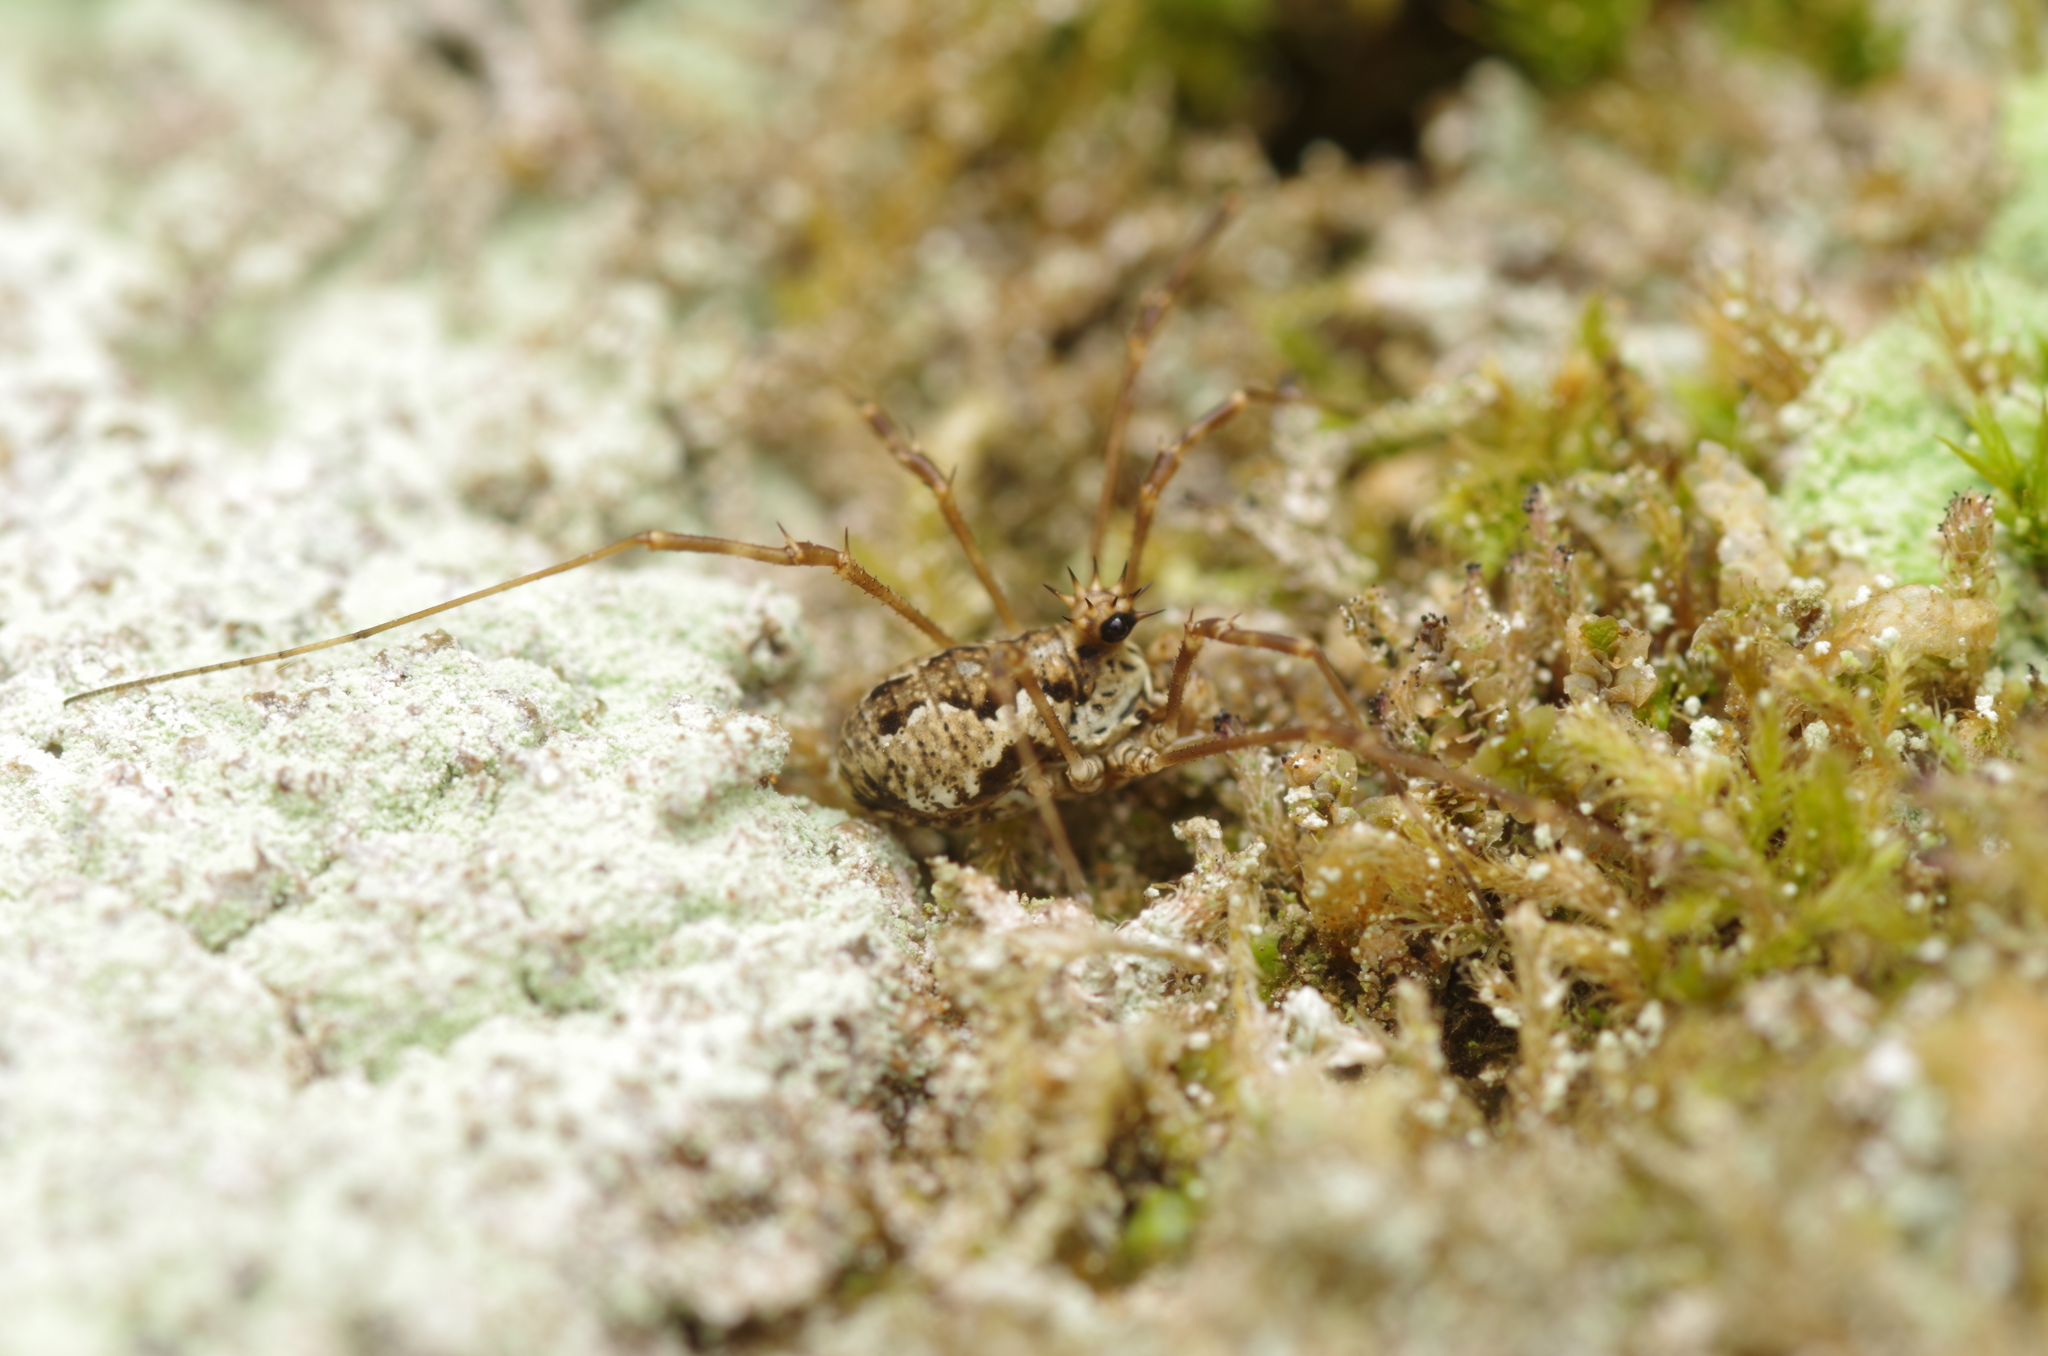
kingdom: Animalia
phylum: Arthropoda
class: Arachnida
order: Opiliones
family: Phalangiidae
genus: Megabunus
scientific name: Megabunus diadema
